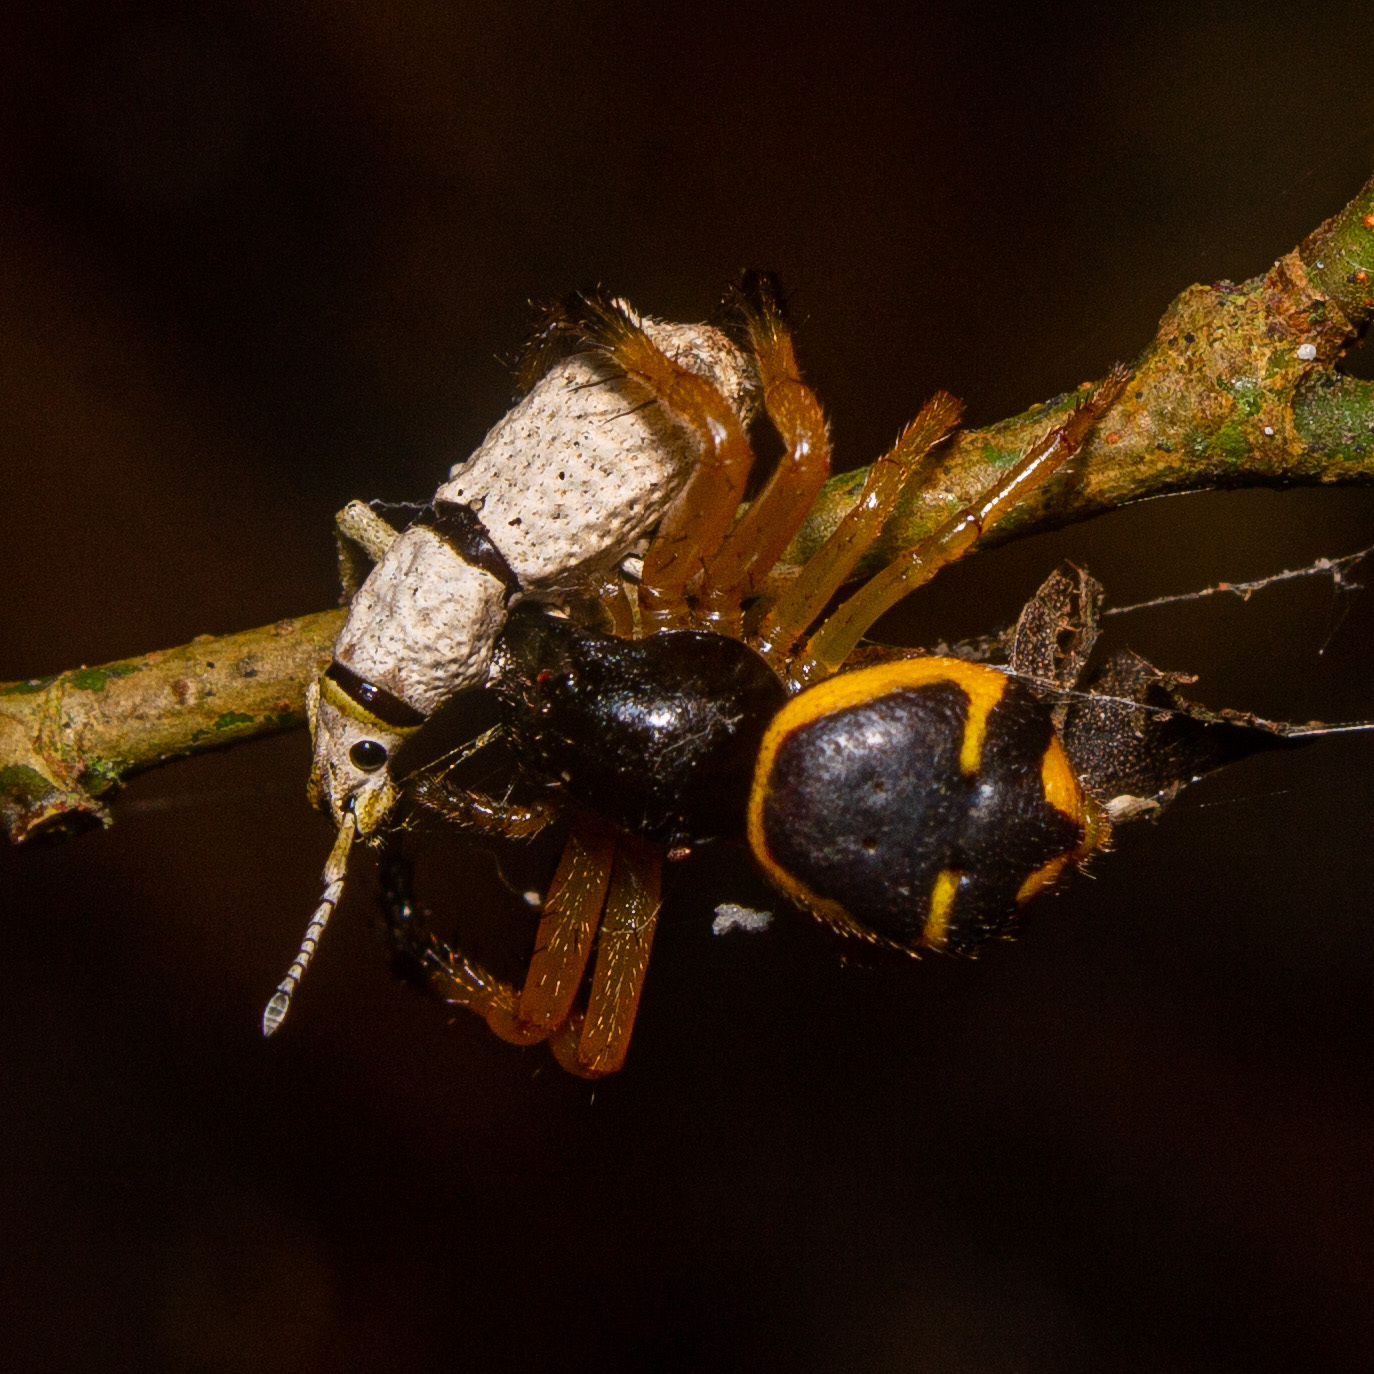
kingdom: Animalia
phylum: Arthropoda
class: Arachnida
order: Araneae
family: Thomisidae
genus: Stephanopoides
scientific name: Stephanopoides simoni
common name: Crab spiders
